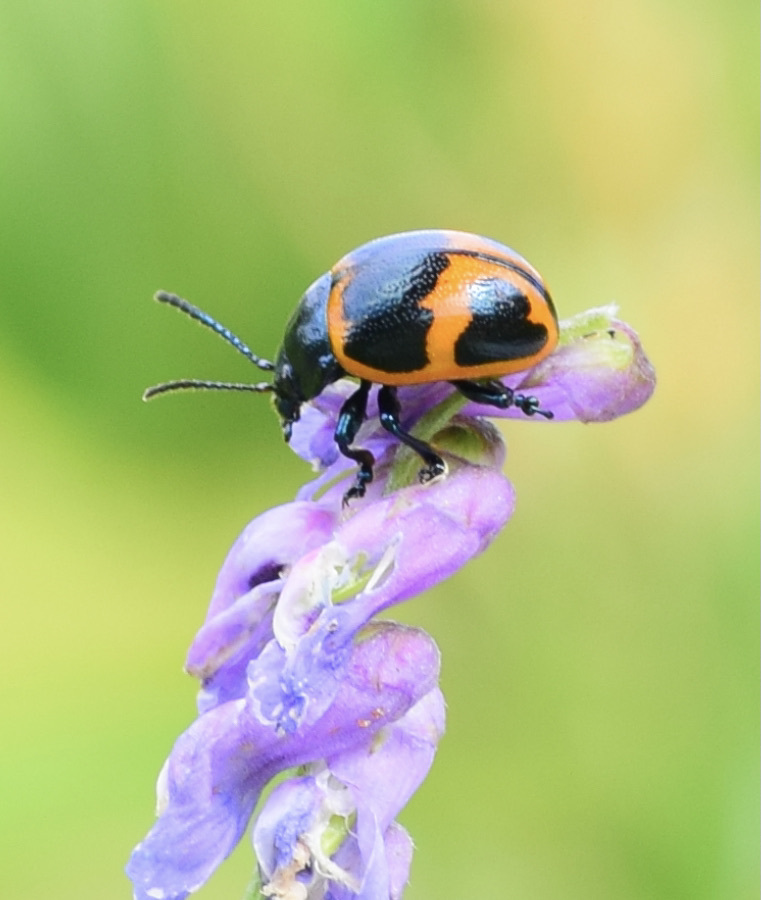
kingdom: Animalia
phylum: Arthropoda
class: Insecta
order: Coleoptera
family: Chrysomelidae
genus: Labidomera
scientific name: Labidomera clivicollis
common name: Swamp milkweed leaf beetle
